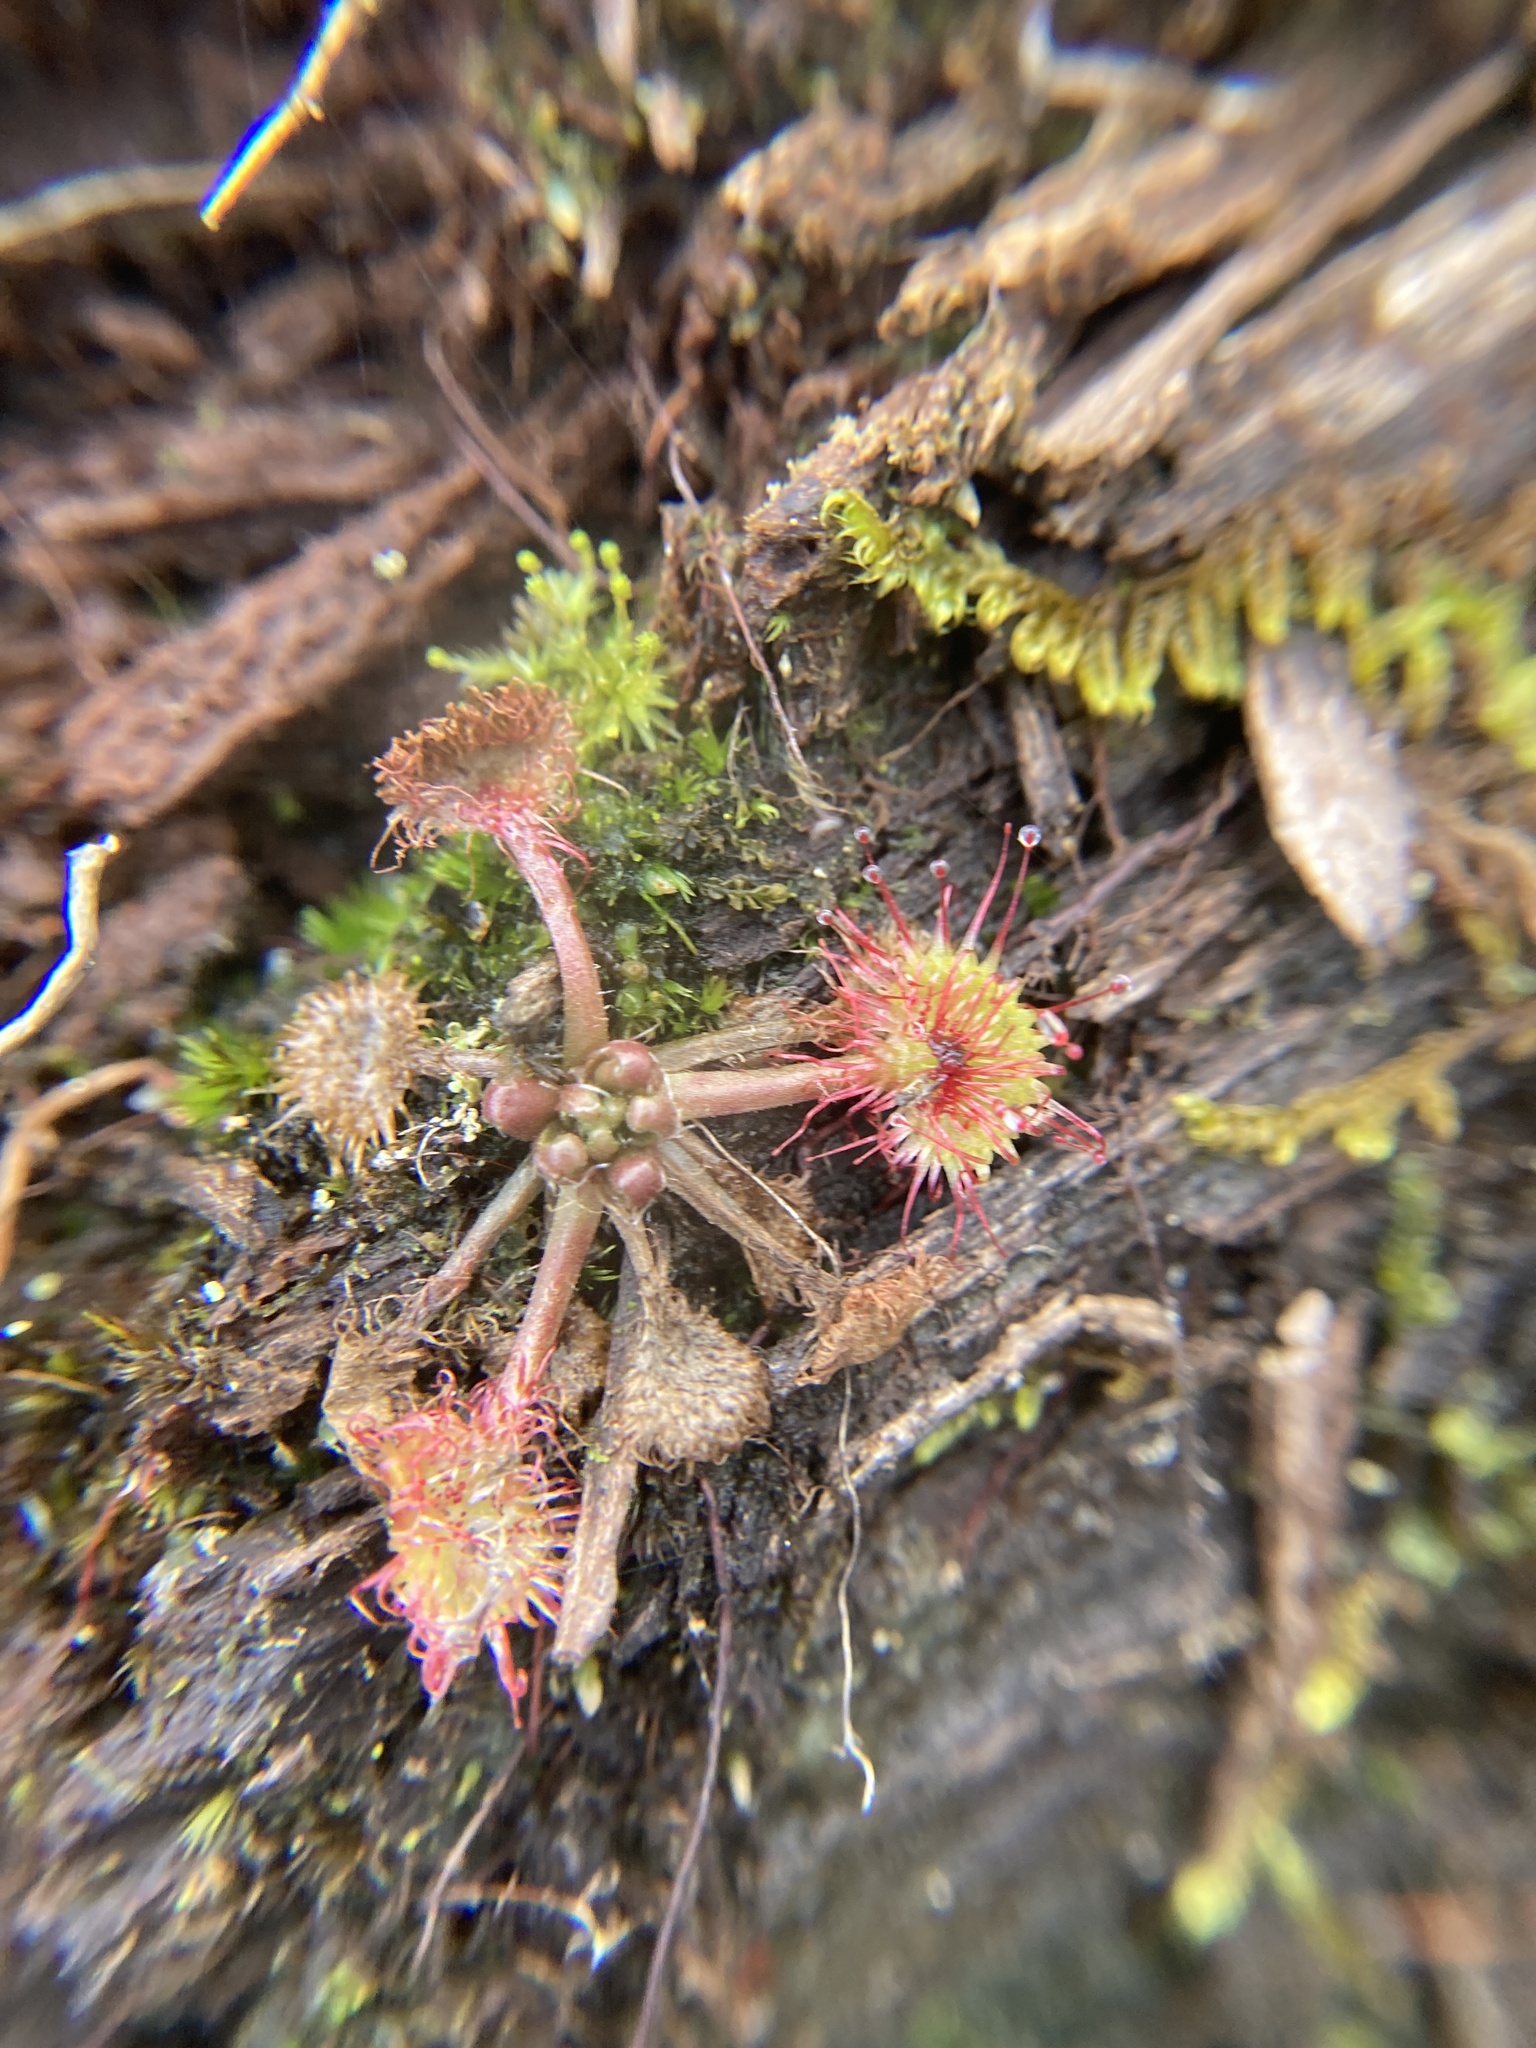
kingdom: Plantae
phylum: Tracheophyta
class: Magnoliopsida
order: Caryophyllales
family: Droseraceae
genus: Drosera
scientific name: Drosera rotundifolia
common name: Round-leaved sundew
